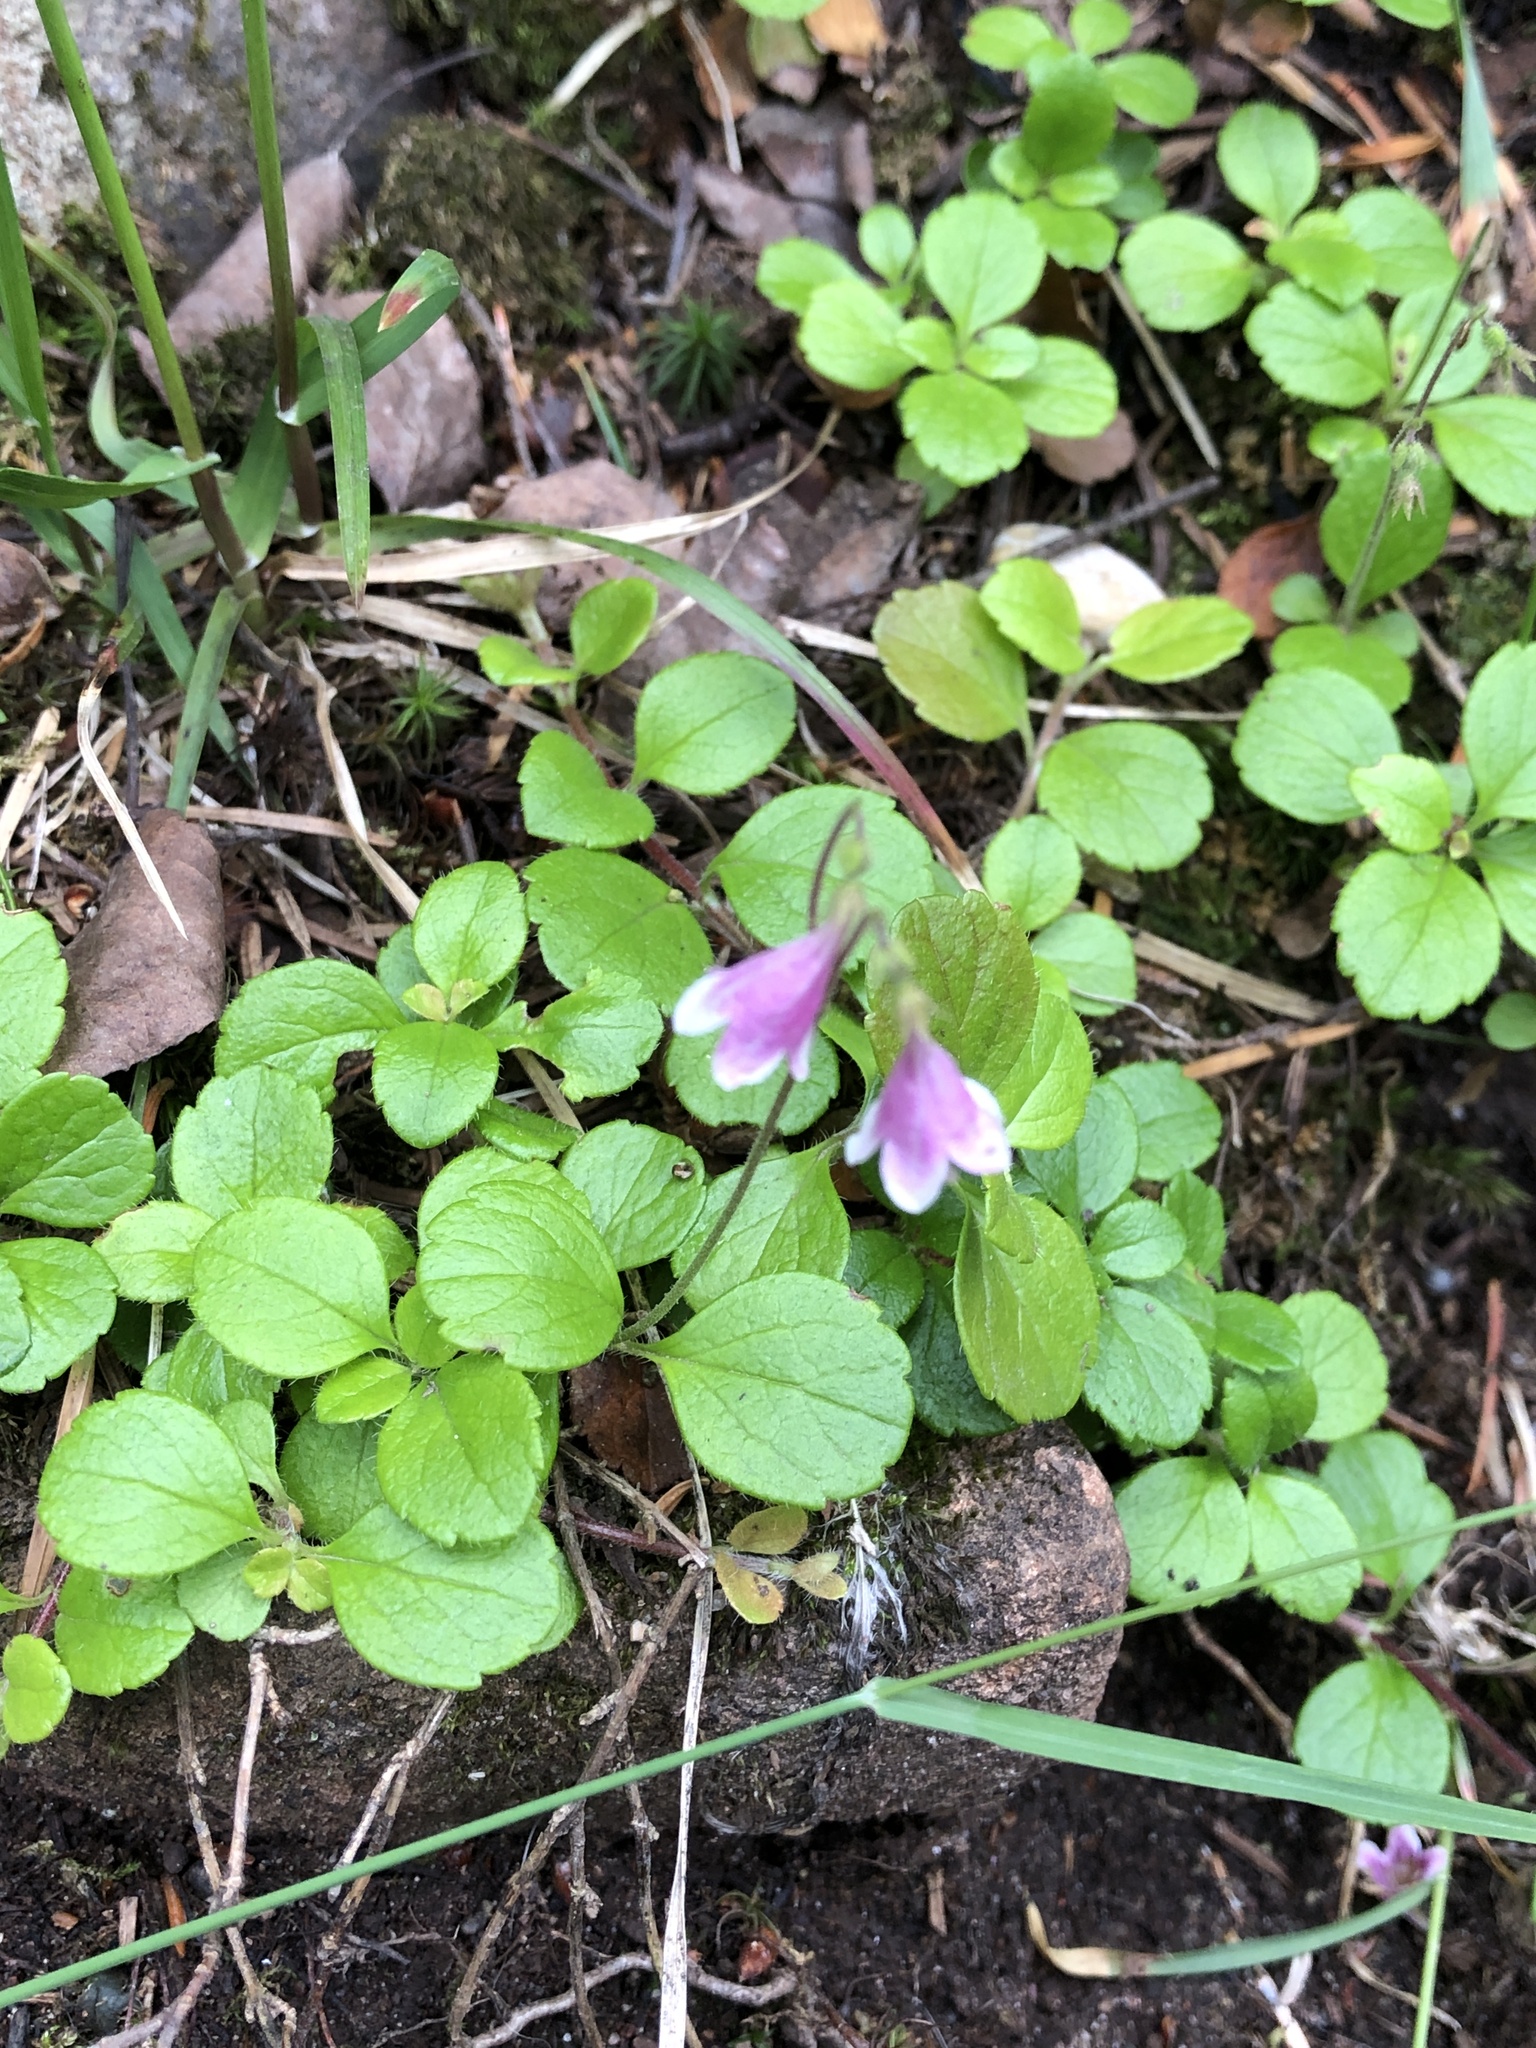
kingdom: Plantae
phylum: Tracheophyta
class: Magnoliopsida
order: Dipsacales
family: Caprifoliaceae
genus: Linnaea
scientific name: Linnaea borealis
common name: Twinflower
